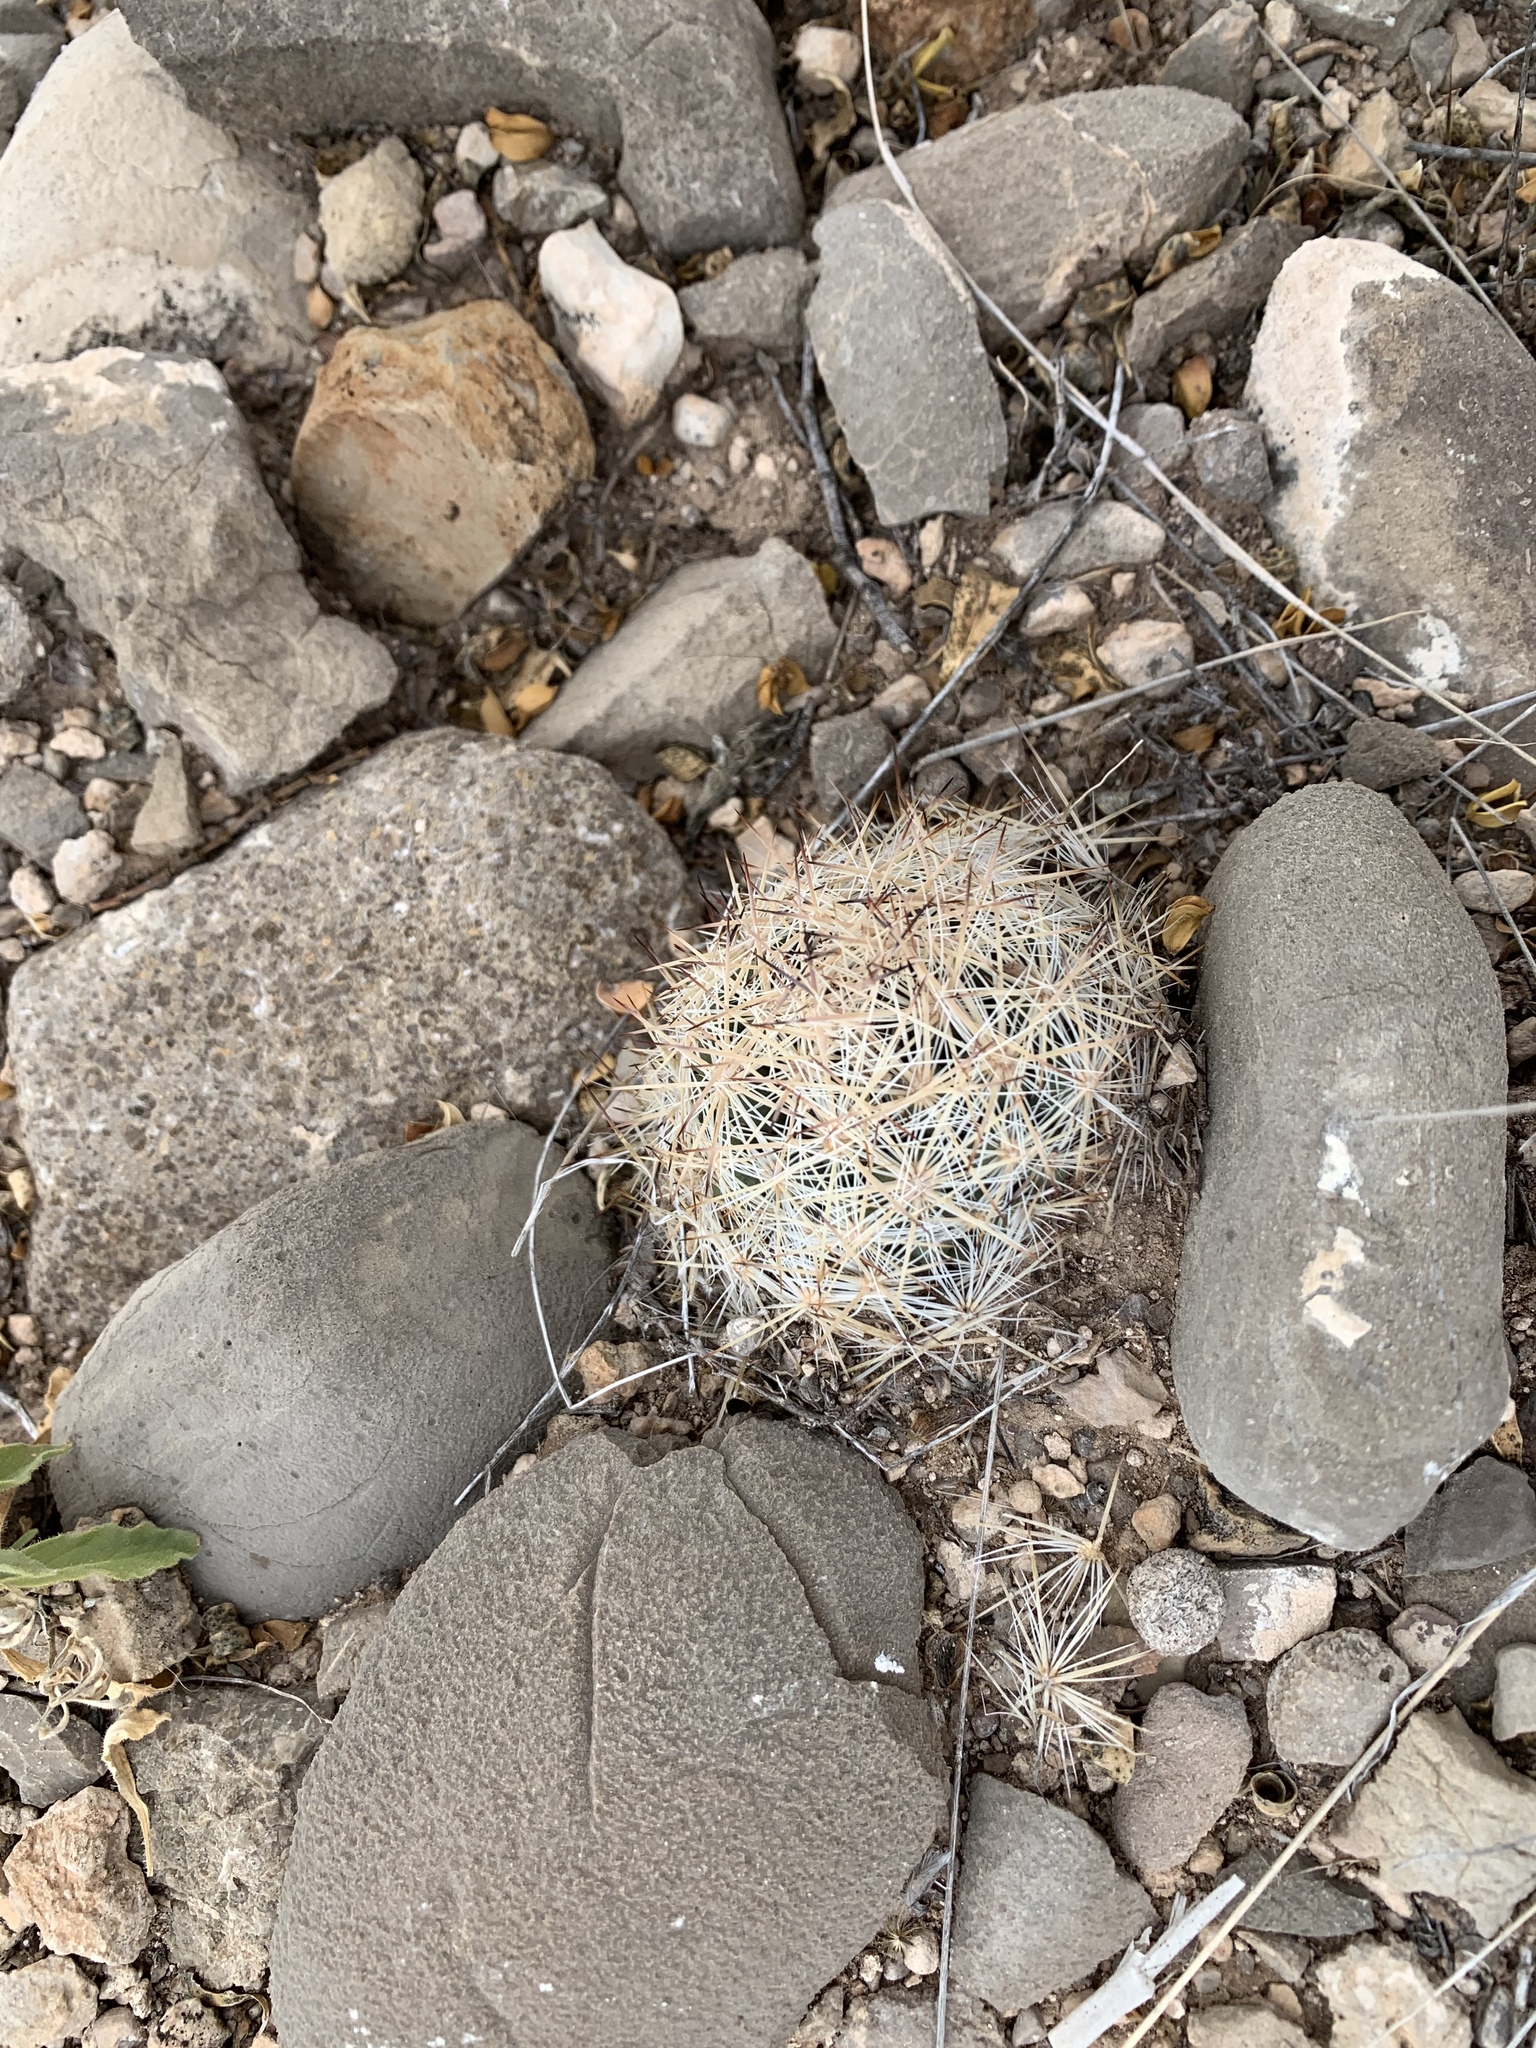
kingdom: Plantae
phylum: Tracheophyta
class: Magnoliopsida
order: Caryophyllales
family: Cactaceae
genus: Pelecyphora
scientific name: Pelecyphora vivipara
